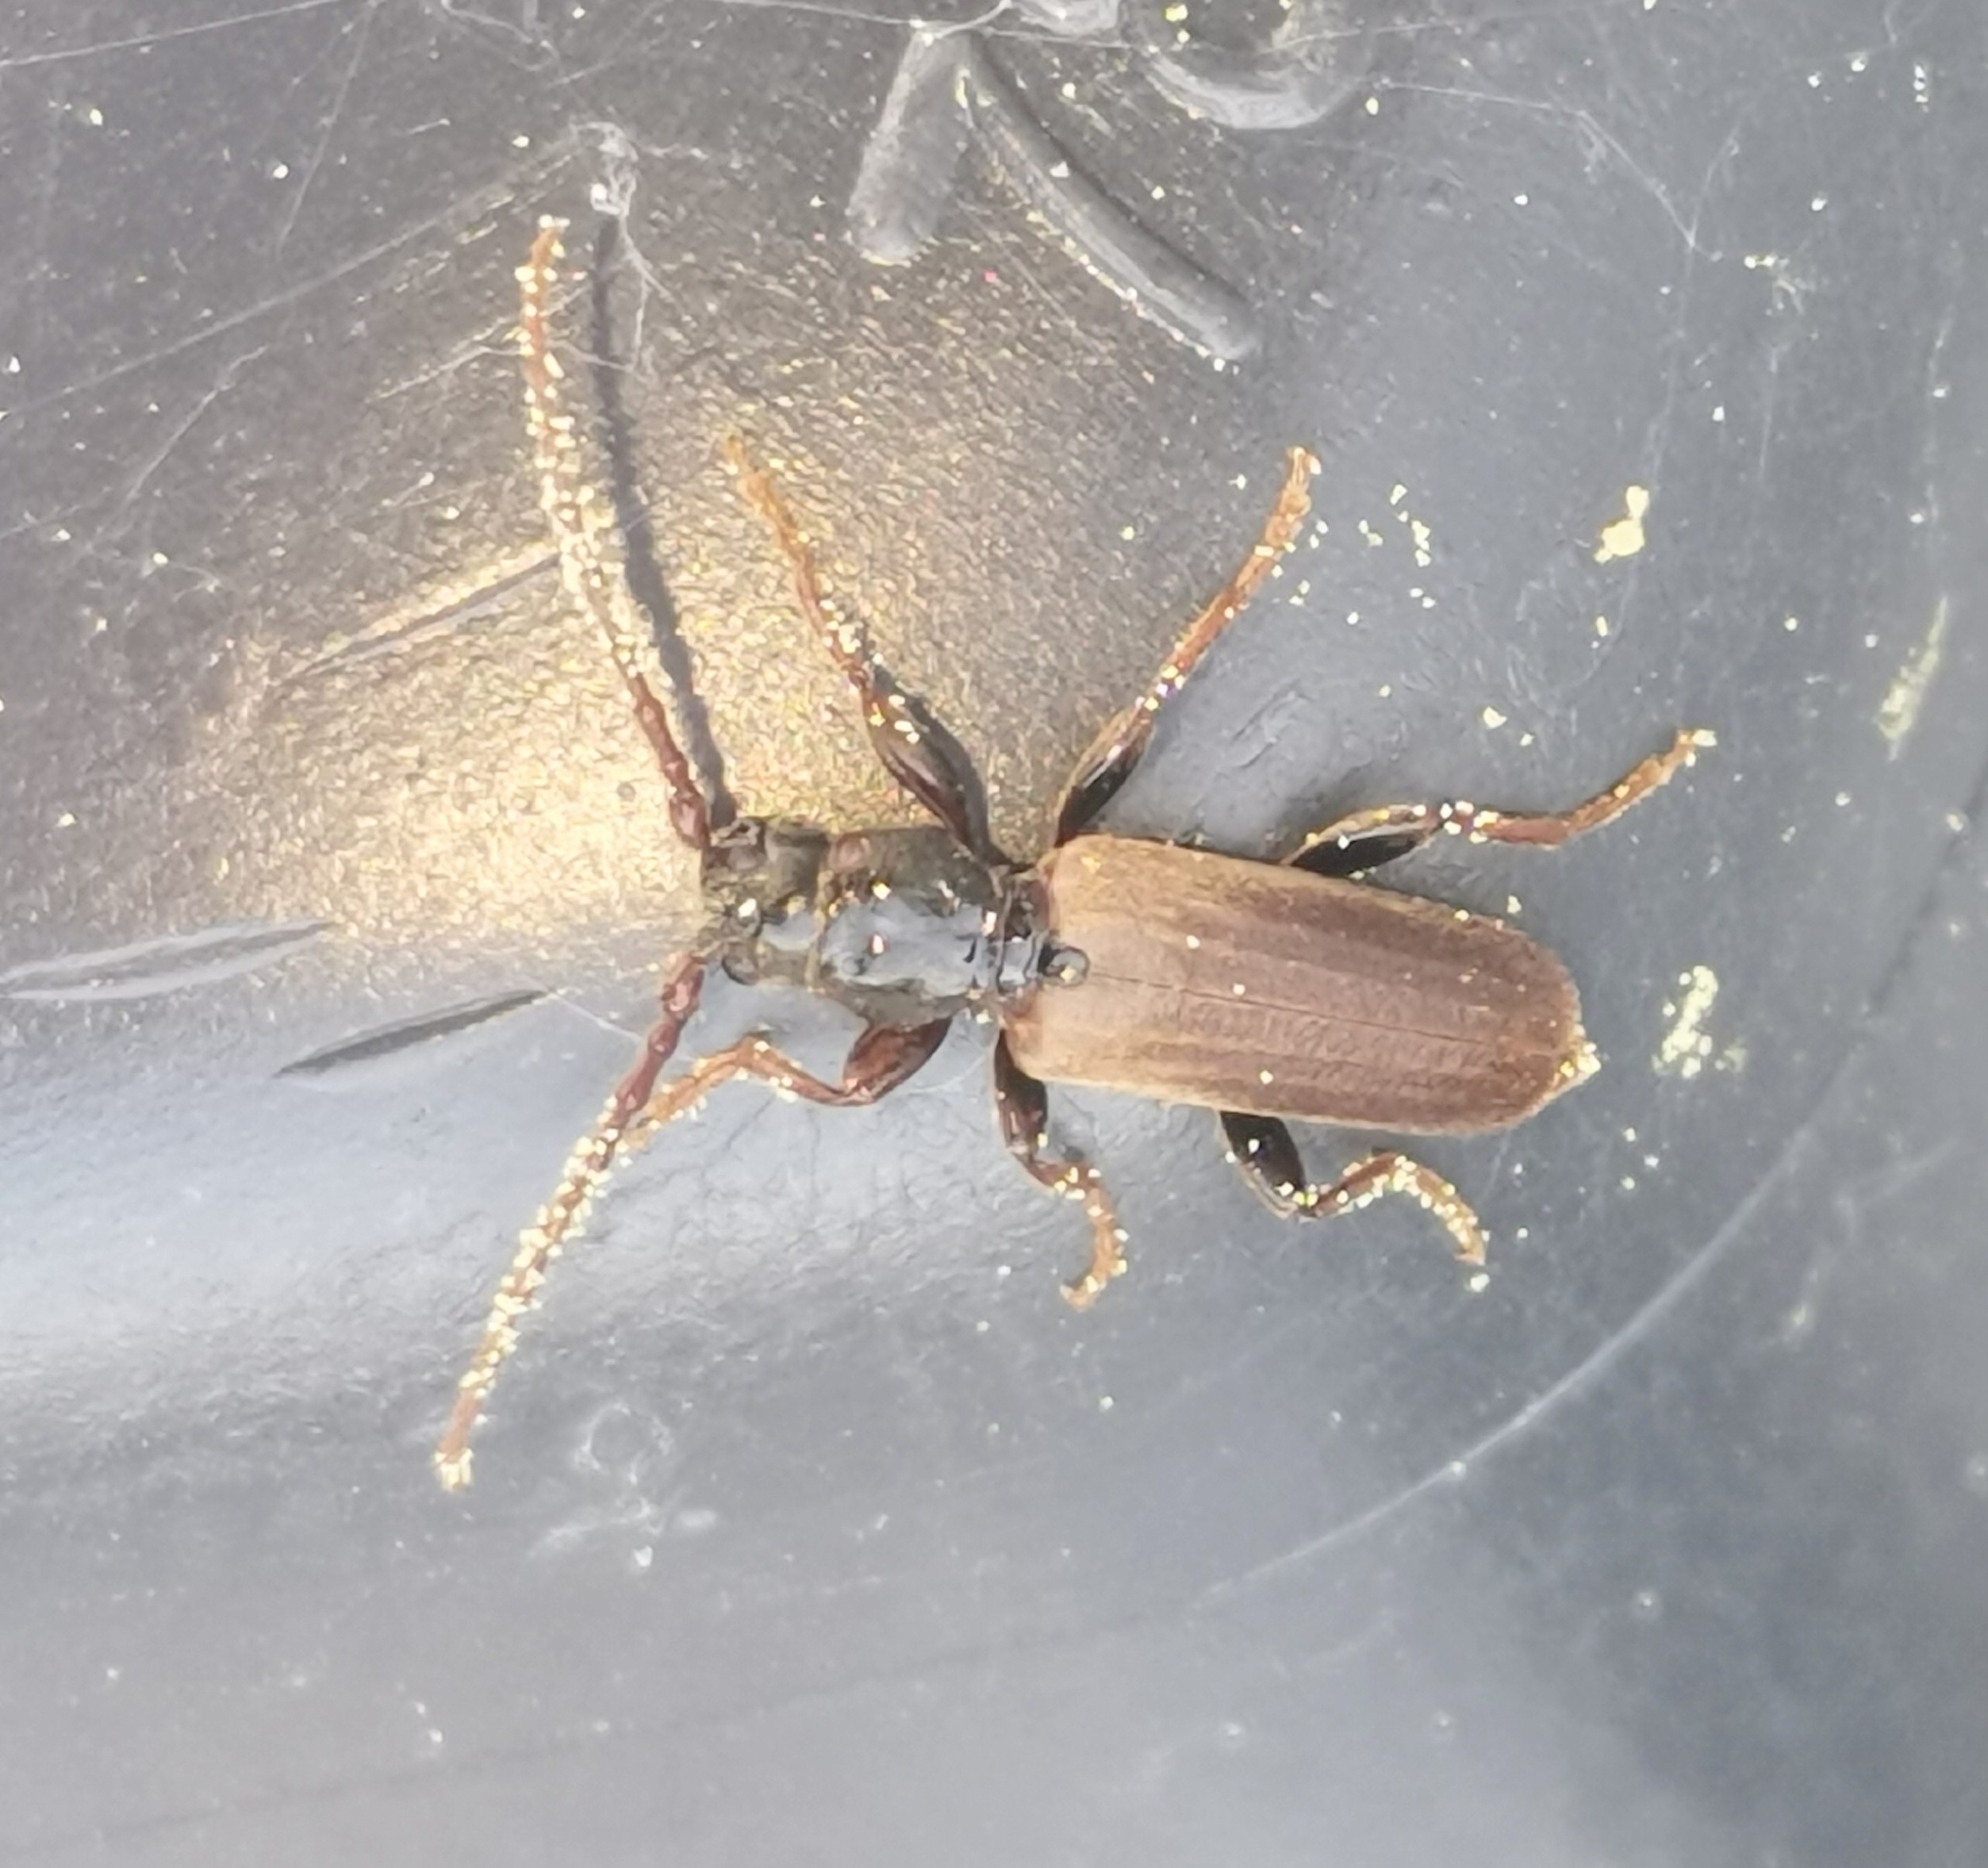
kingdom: Animalia
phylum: Arthropoda
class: Insecta
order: Coleoptera
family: Cerambycidae
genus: Tetropium
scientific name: Tetropium castaneum
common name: Long-horned beetle
